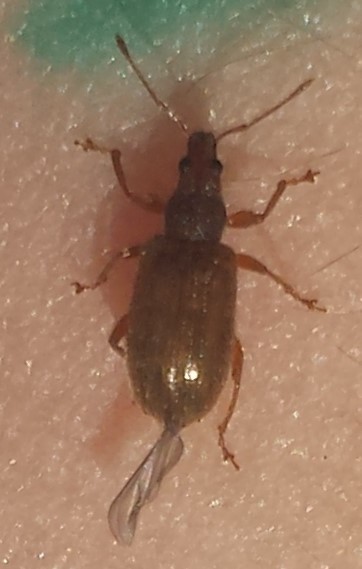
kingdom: Animalia
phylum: Arthropoda
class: Insecta
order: Coleoptera
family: Curculionidae
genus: Phyllobius
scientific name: Phyllobius oblongus
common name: Brown leaf weevil
